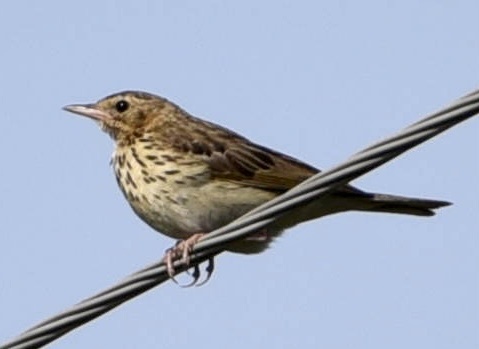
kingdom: Animalia
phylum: Chordata
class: Aves
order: Passeriformes
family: Motacillidae
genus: Anthus
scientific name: Anthus trivialis
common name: Tree pipit
